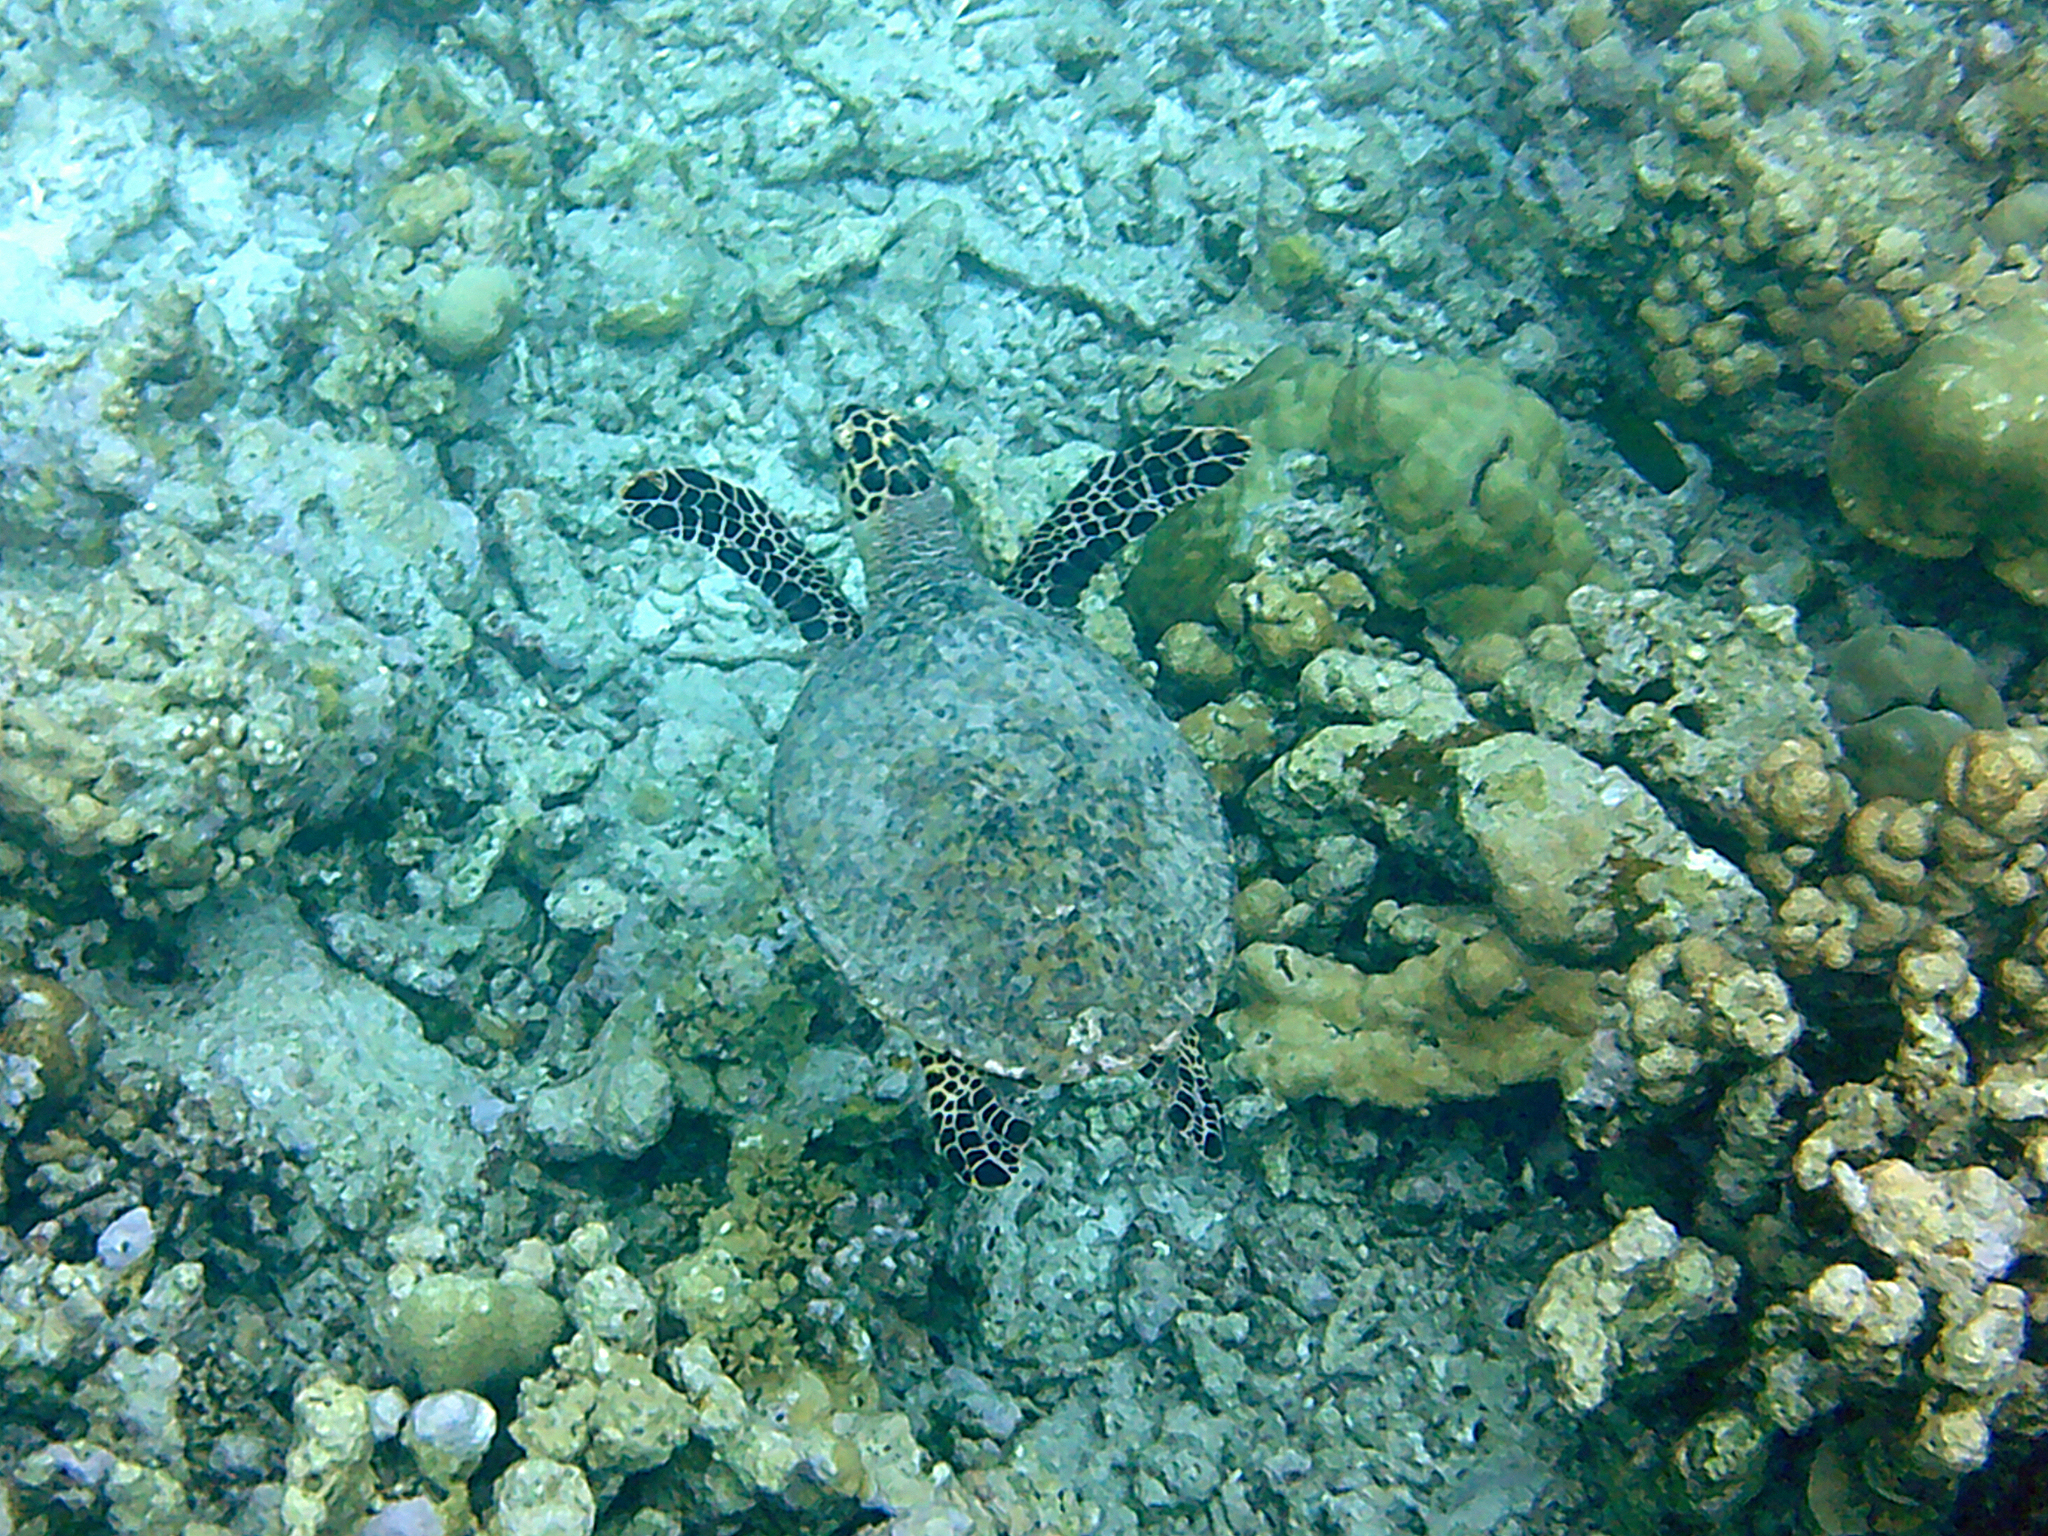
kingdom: Animalia
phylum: Chordata
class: Testudines
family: Cheloniidae
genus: Eretmochelys
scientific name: Eretmochelys imbricata
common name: Hawksbill turtle
